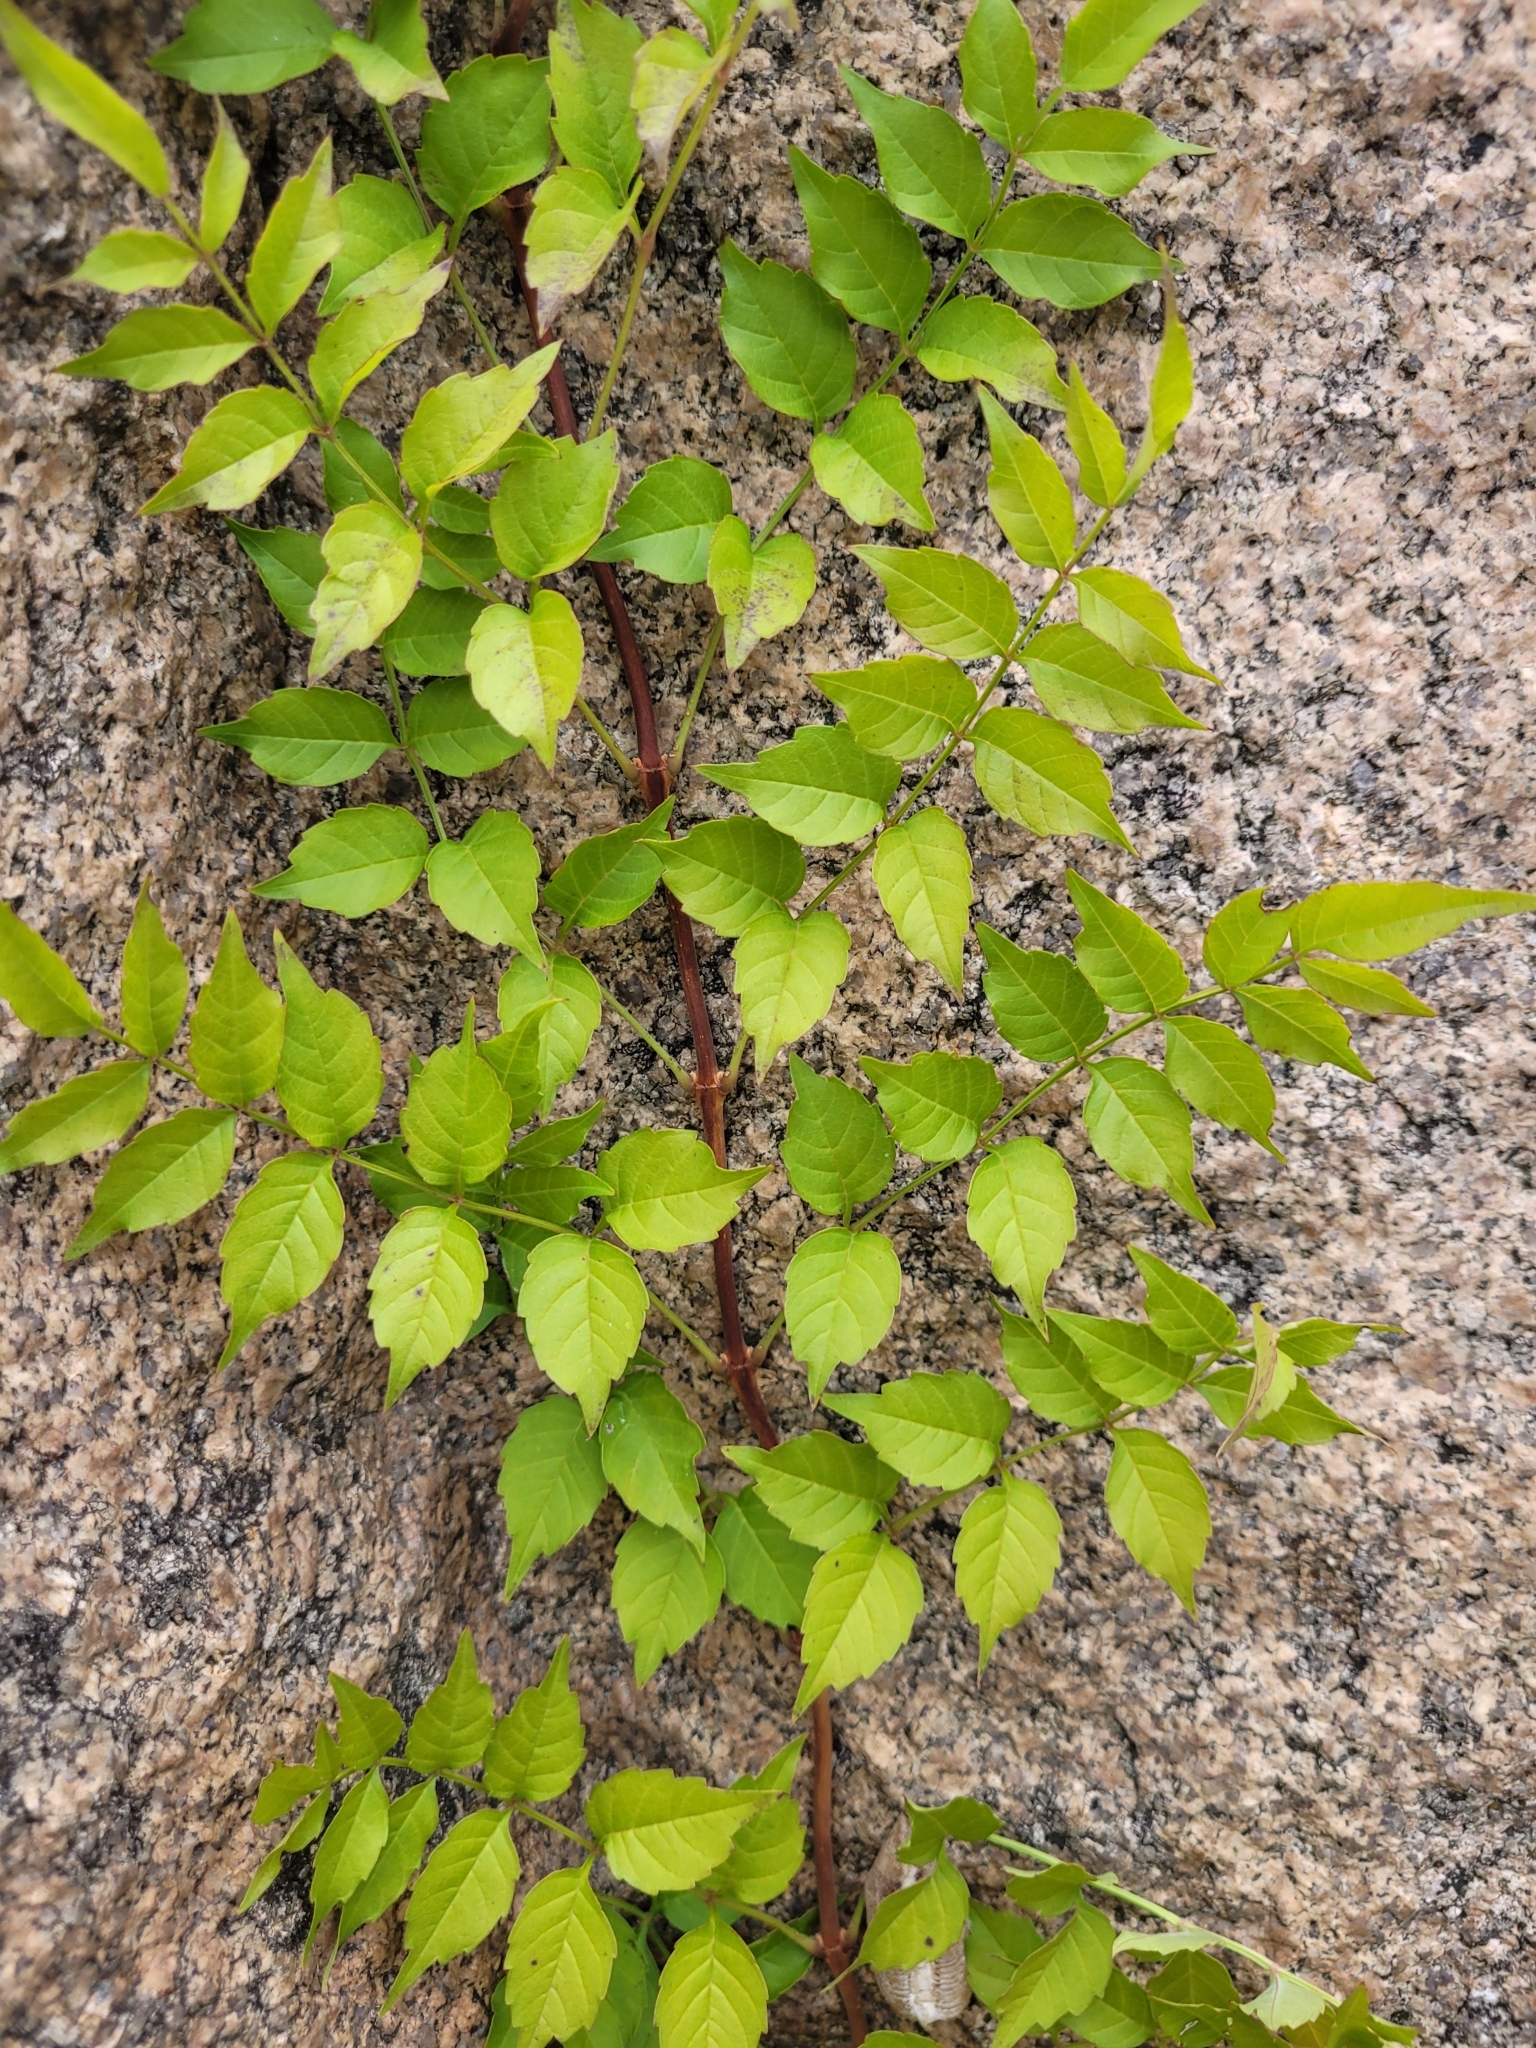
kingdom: Plantae
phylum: Tracheophyta
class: Magnoliopsida
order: Lamiales
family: Bignoniaceae
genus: Campsis
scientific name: Campsis radicans
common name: Trumpet-creeper
